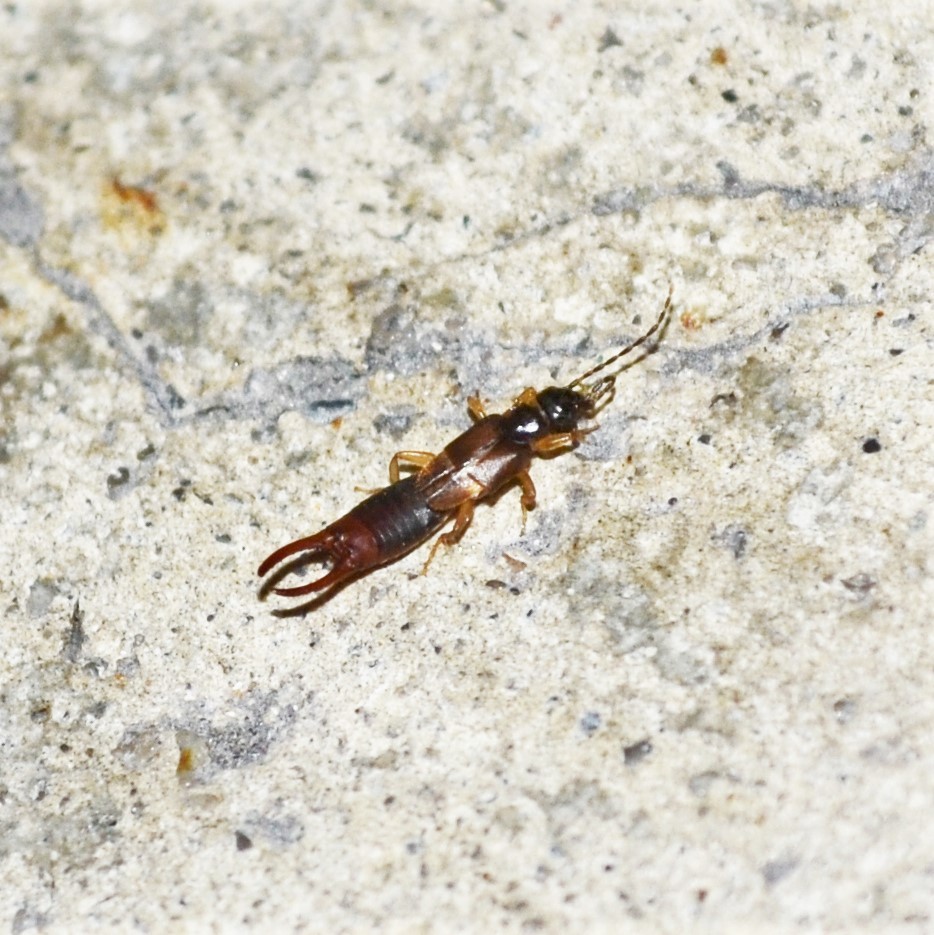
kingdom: Animalia
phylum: Arthropoda
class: Insecta
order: Dermaptera
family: Spongiphoridae
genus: Labia
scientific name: Labia minor
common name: Lesser earwig
